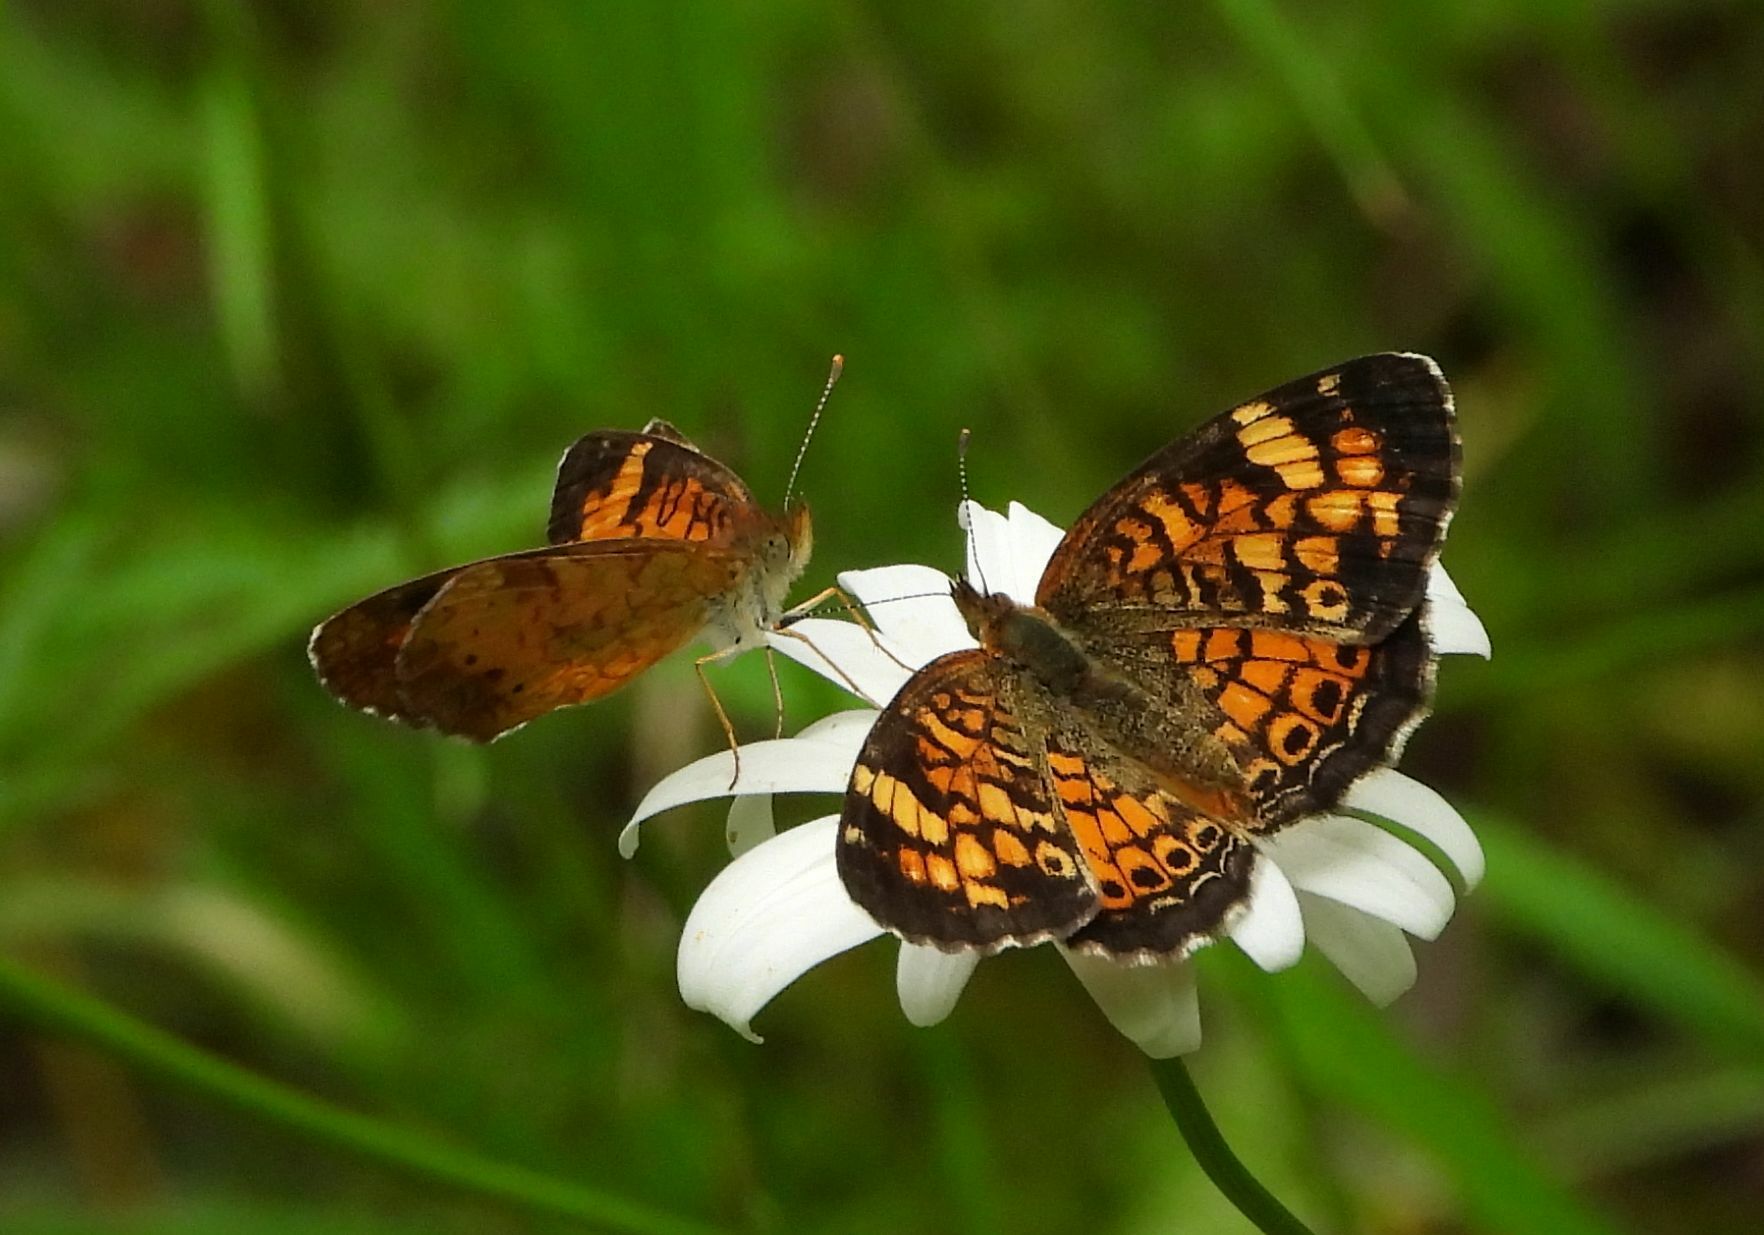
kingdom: Animalia
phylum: Arthropoda
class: Insecta
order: Lepidoptera
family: Nymphalidae
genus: Phyciodes
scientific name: Phyciodes tharos
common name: Pearl crescent
